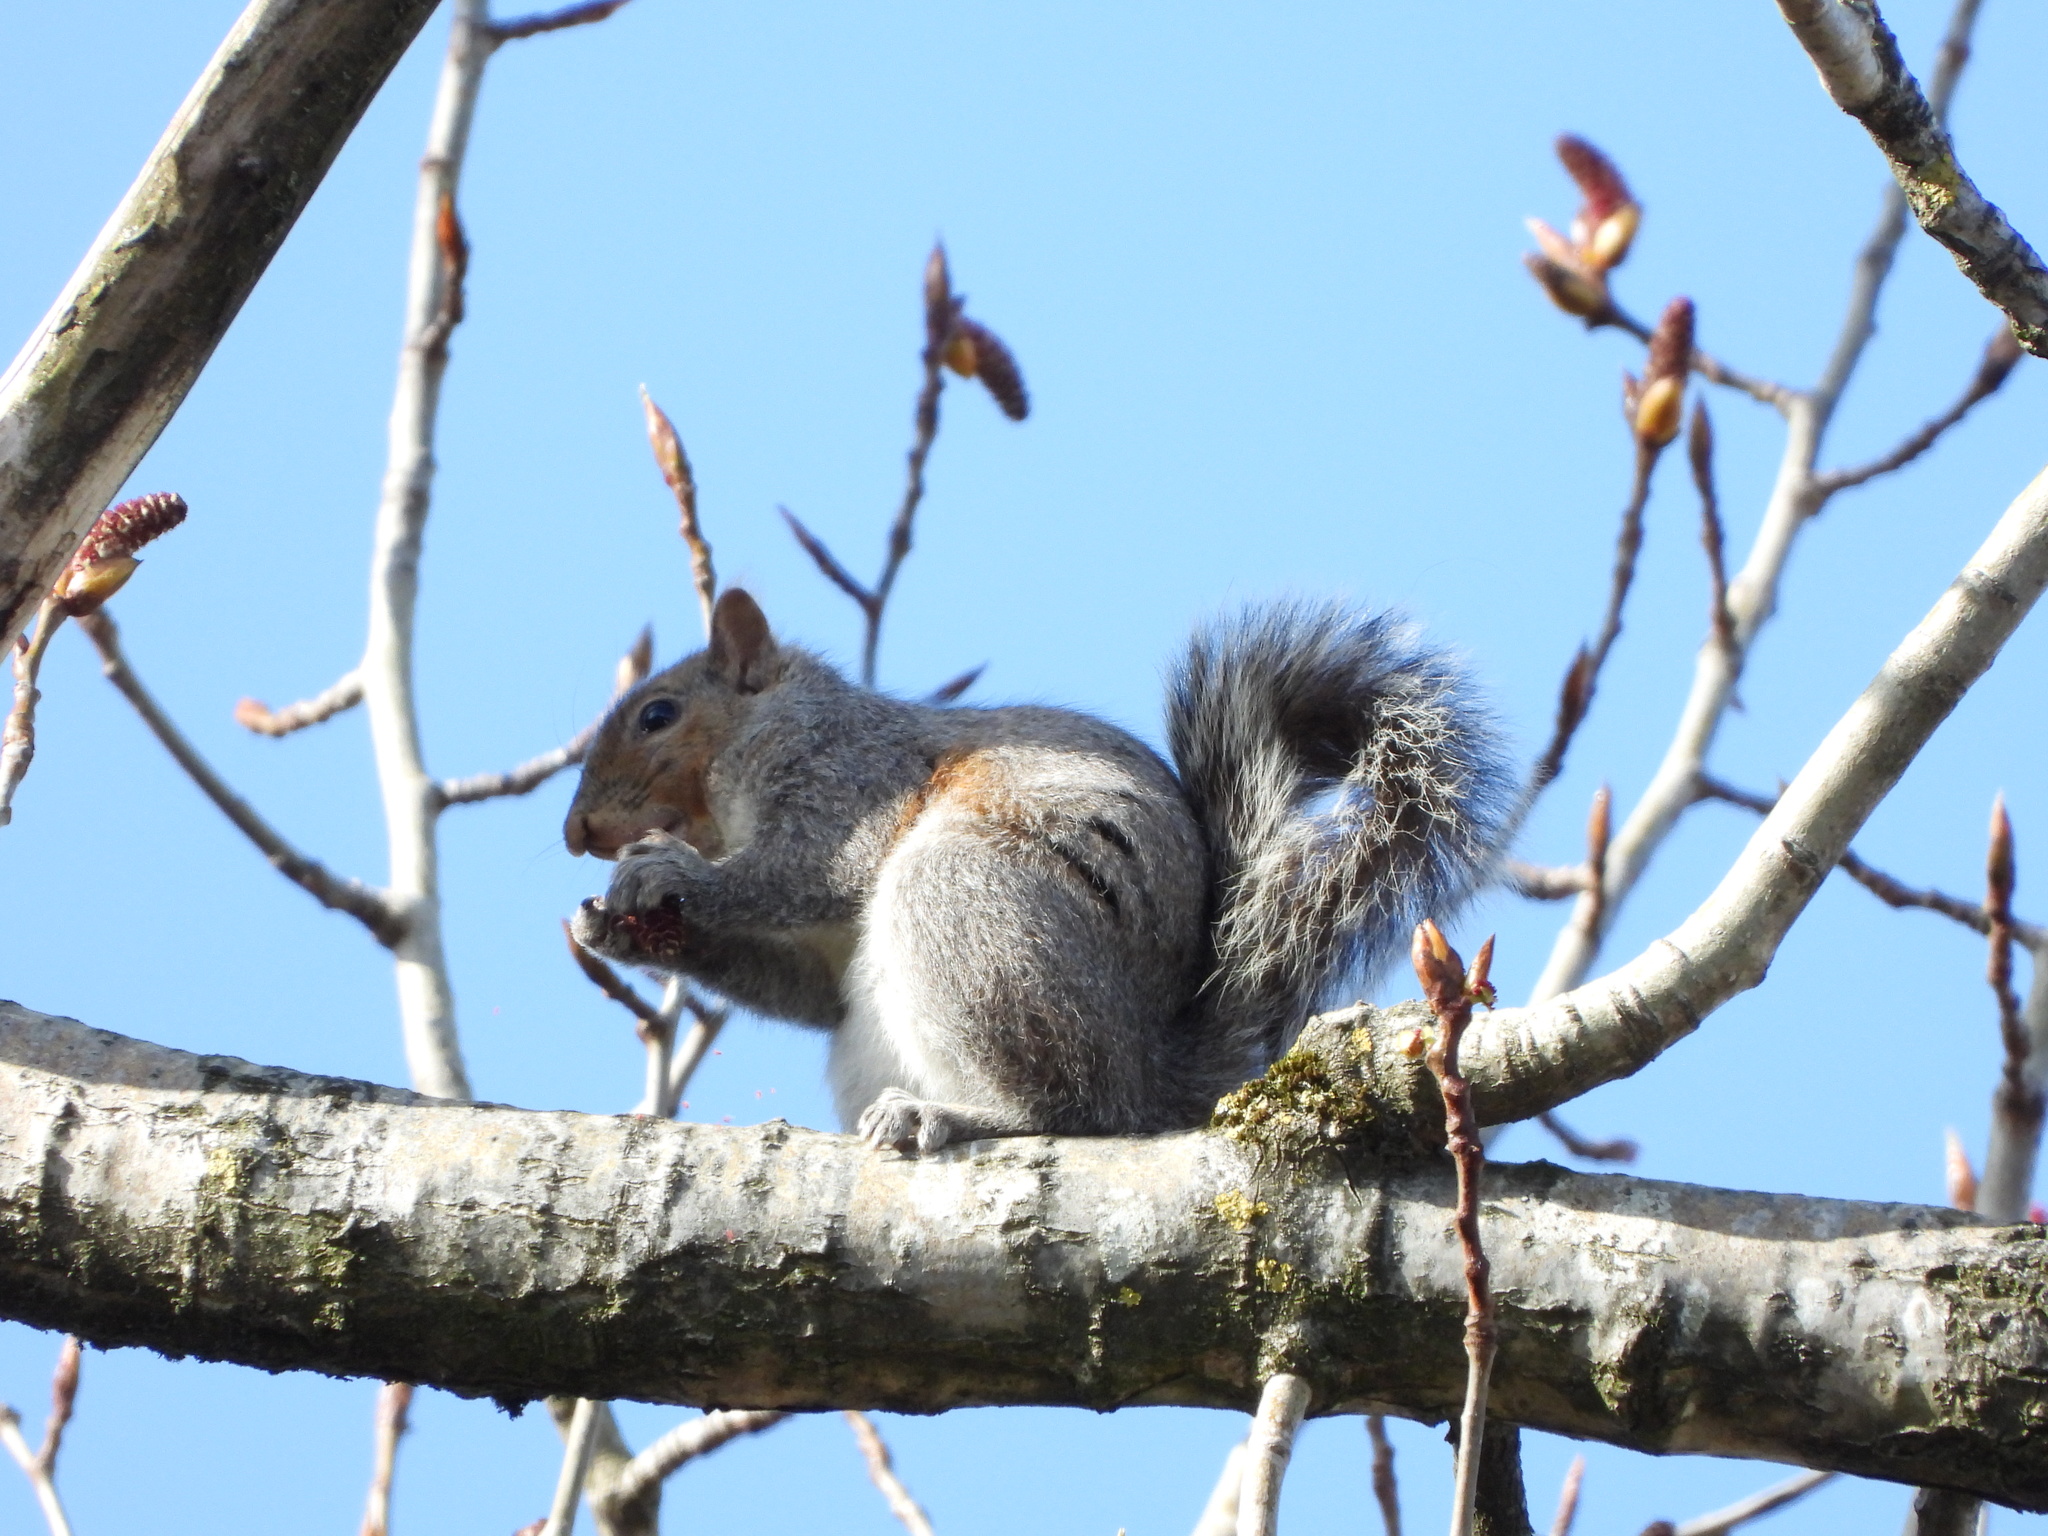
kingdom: Animalia
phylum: Chordata
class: Mammalia
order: Rodentia
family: Sciuridae
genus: Sciurus
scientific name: Sciurus carolinensis
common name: Eastern gray squirrel
